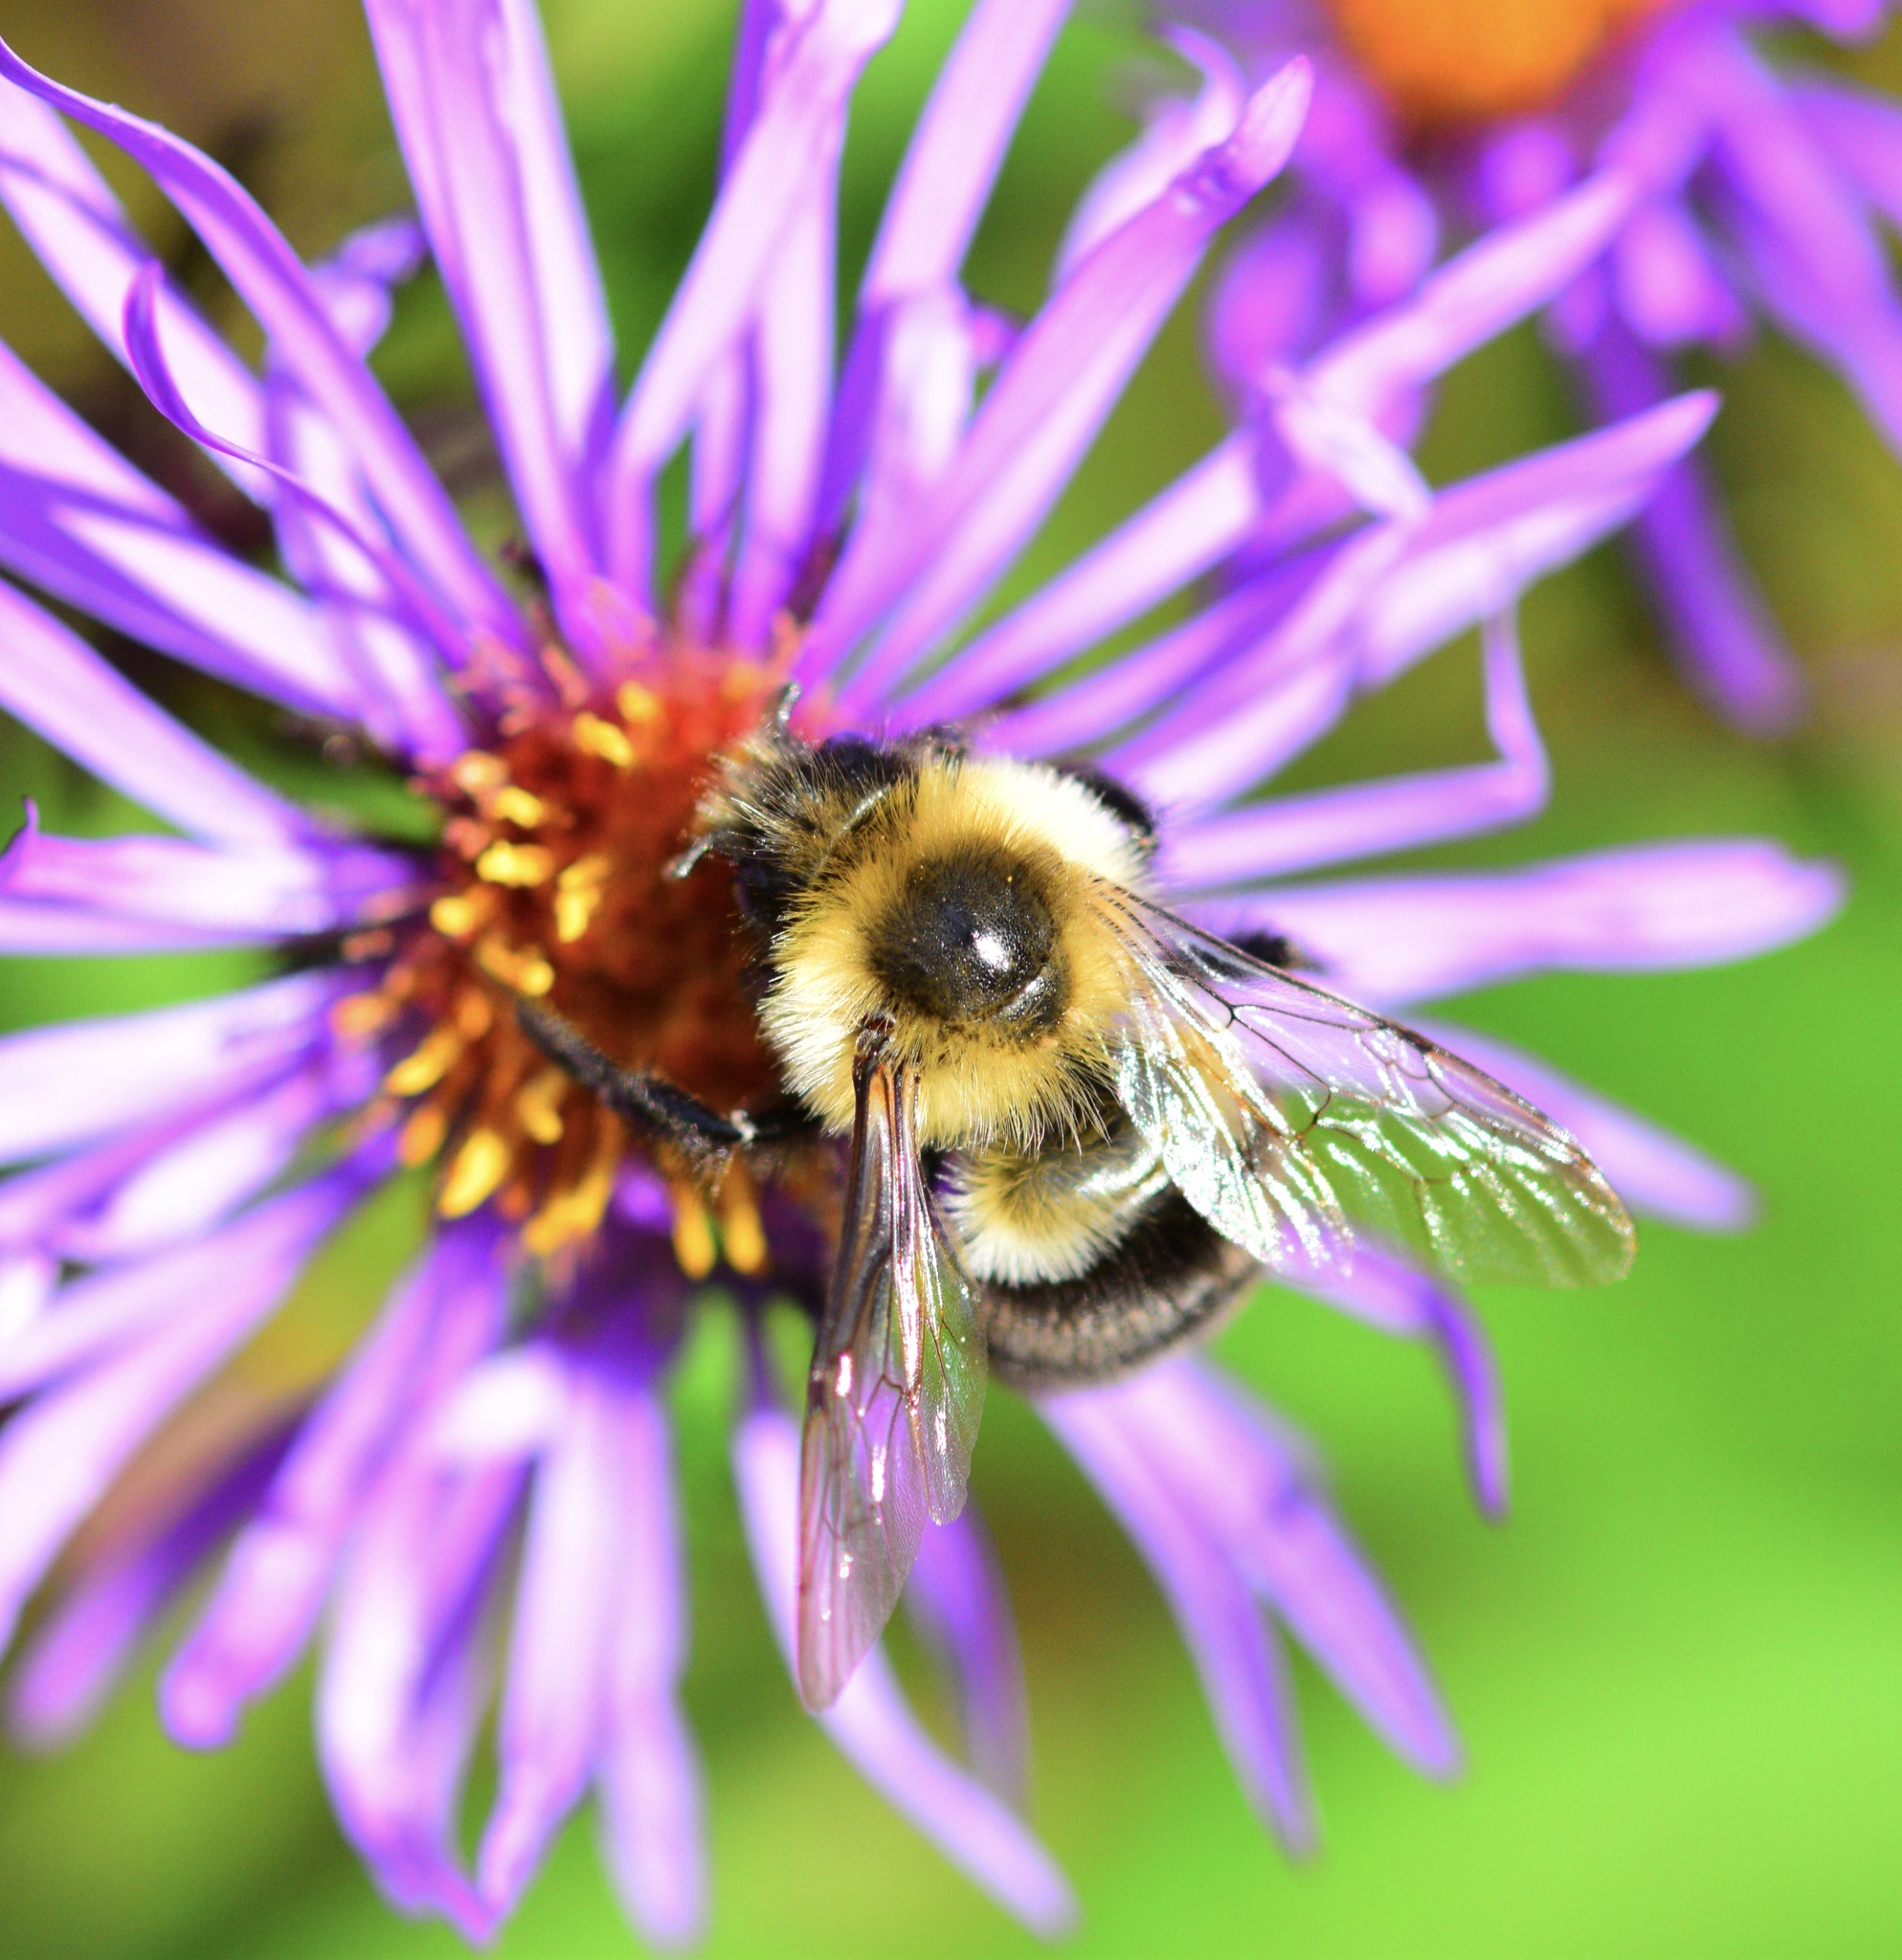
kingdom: Animalia
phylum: Arthropoda
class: Insecta
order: Hymenoptera
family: Apidae
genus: Bombus
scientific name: Bombus impatiens
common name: Common eastern bumble bee
